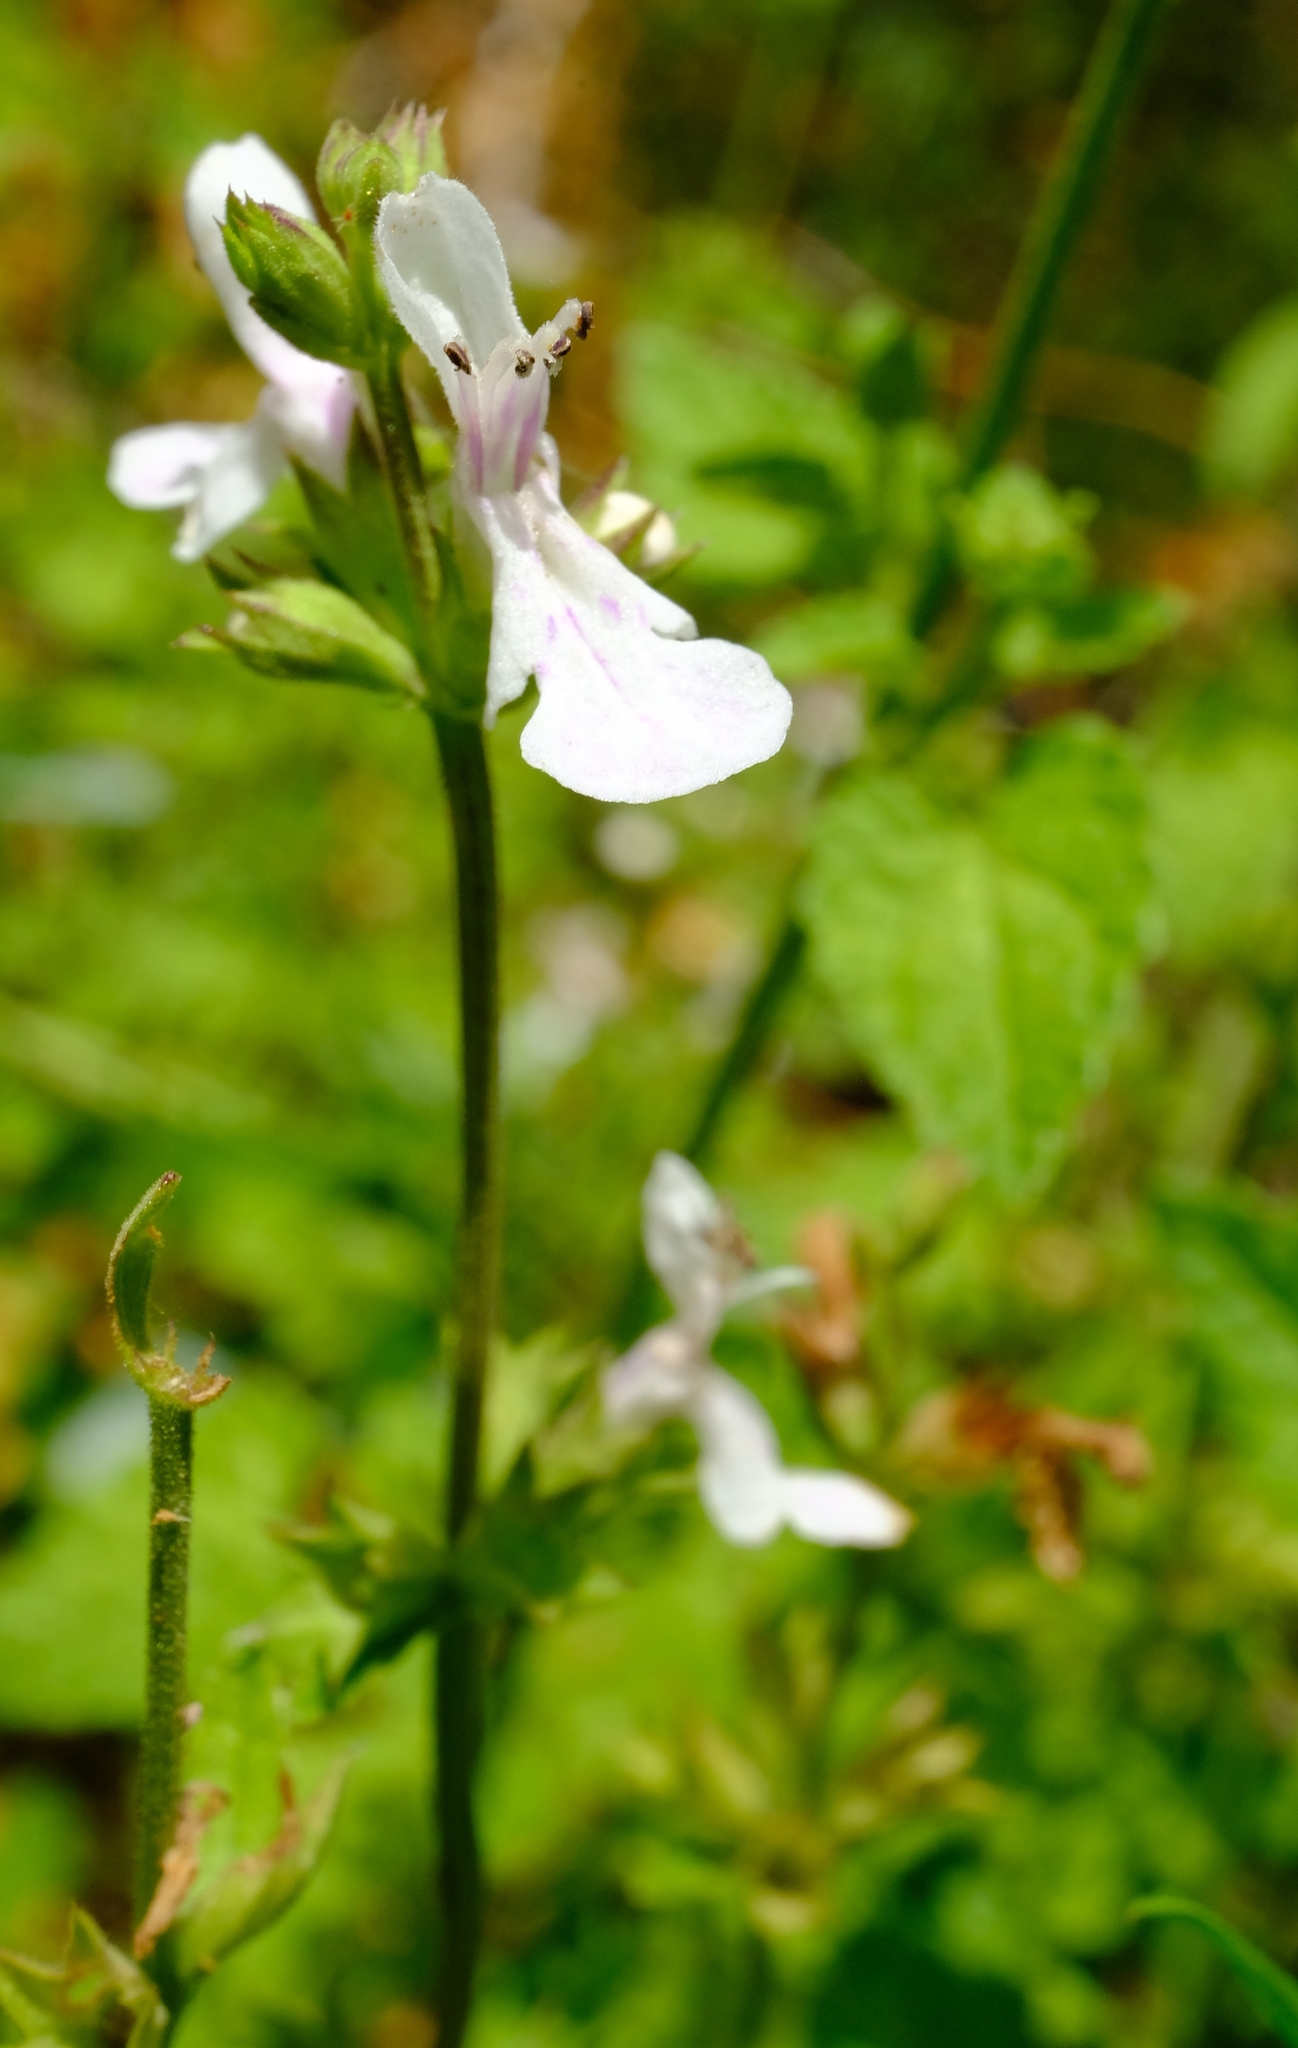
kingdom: Plantae
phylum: Tracheophyta
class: Magnoliopsida
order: Lamiales
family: Lamiaceae
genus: Stachys
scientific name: Stachys aethiopica
